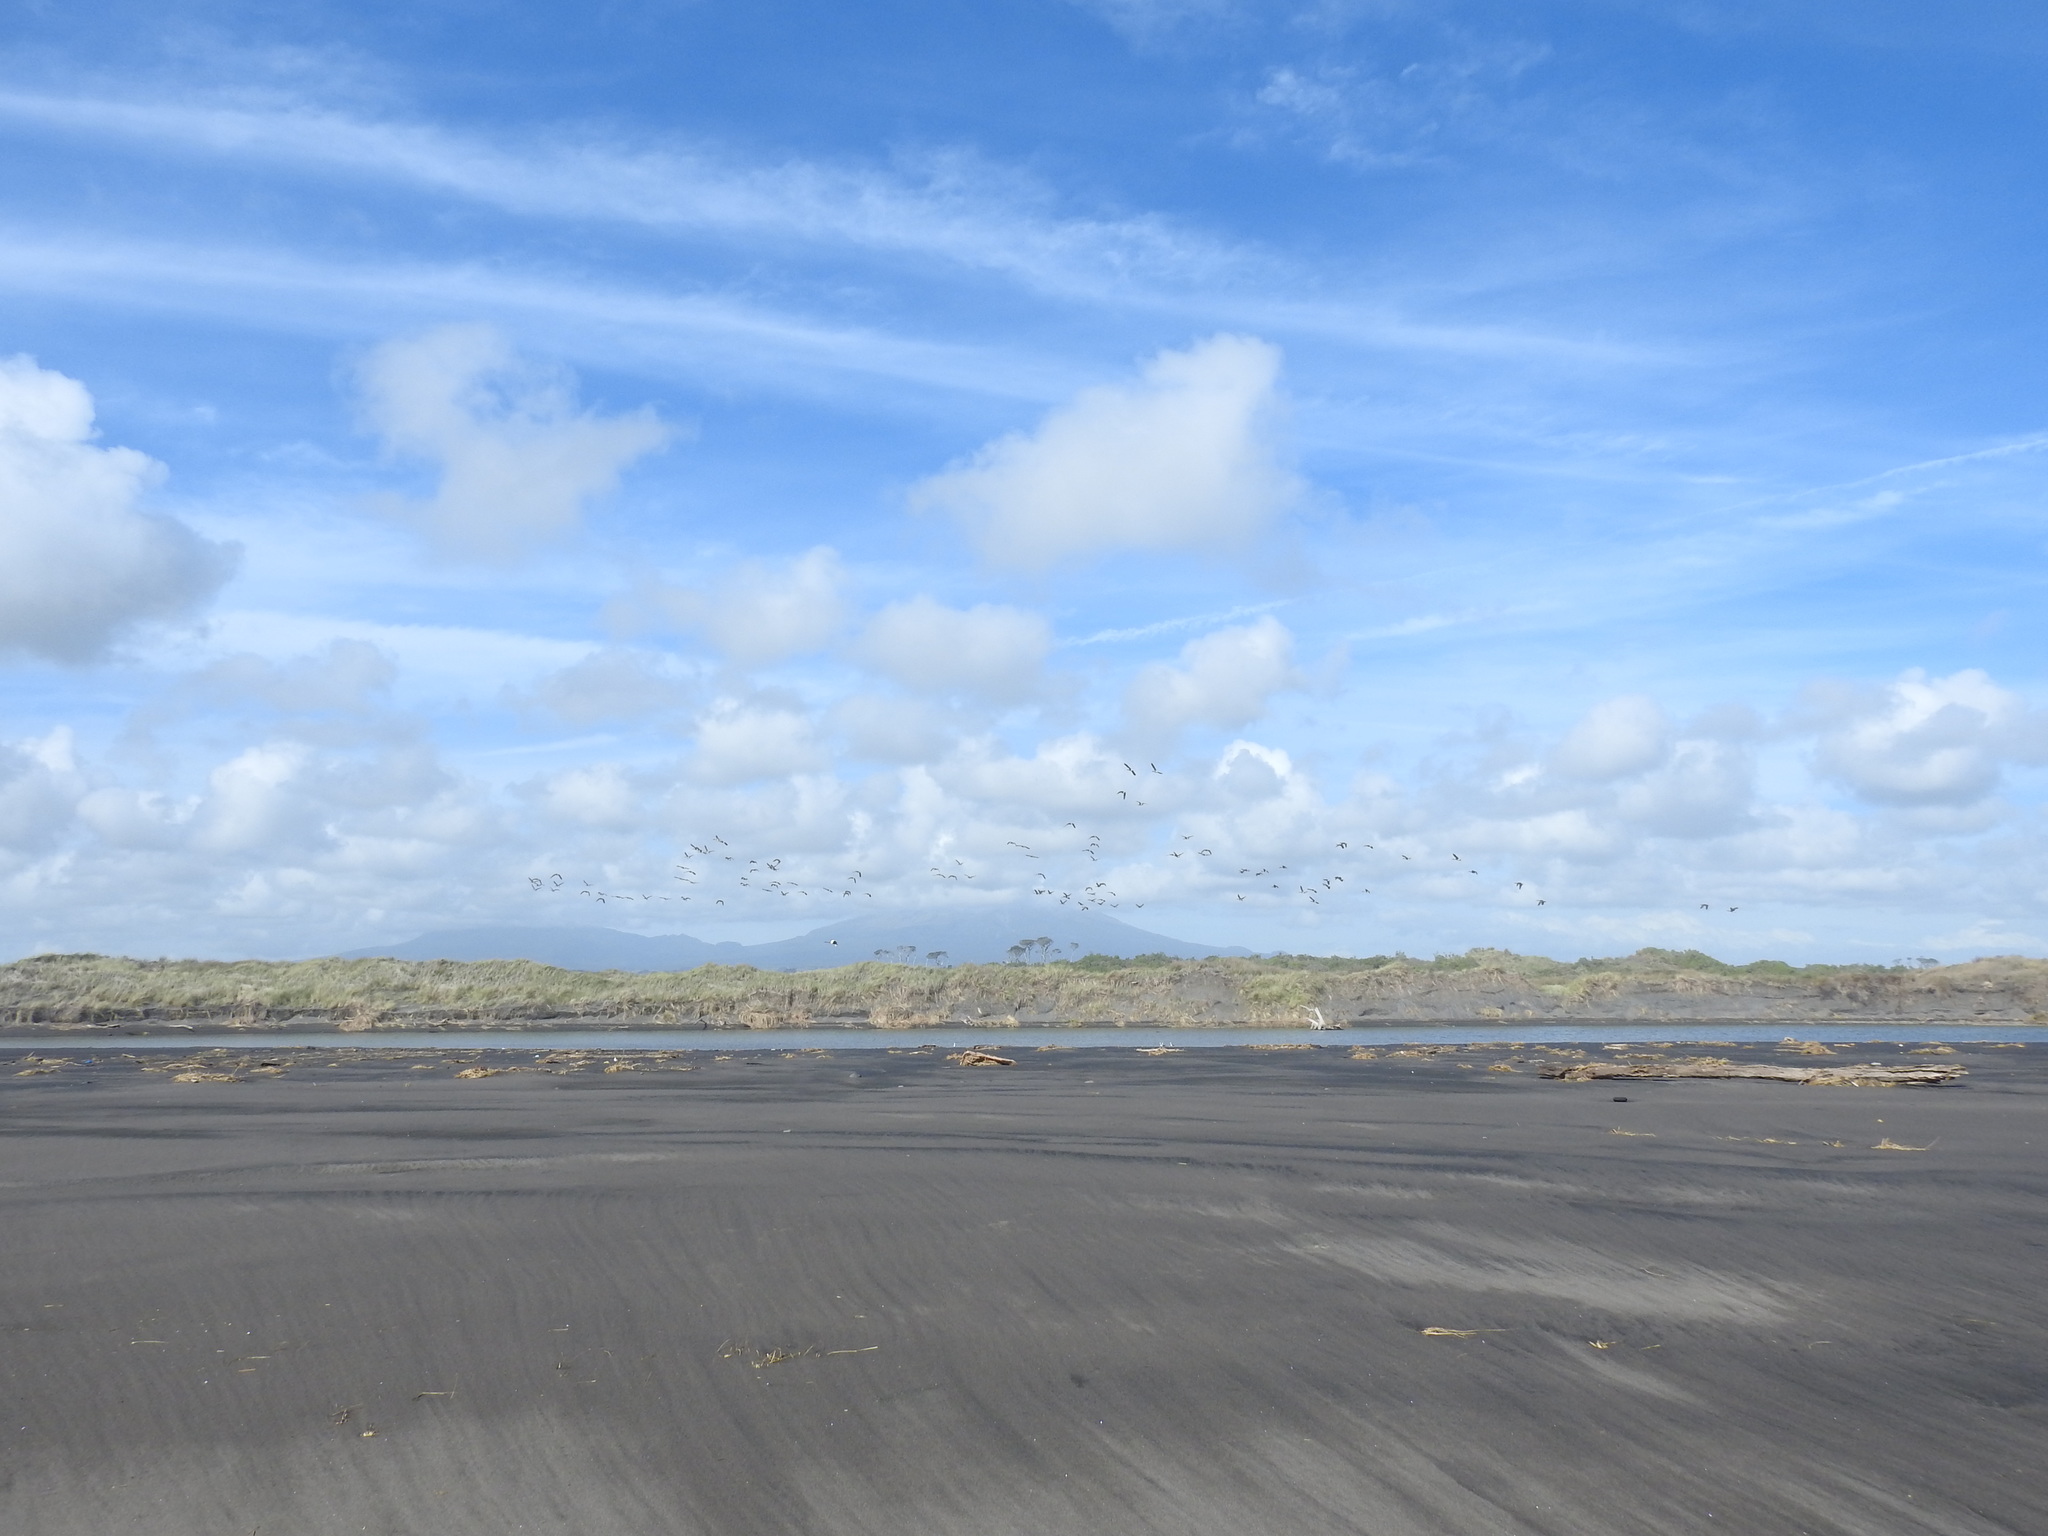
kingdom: Animalia
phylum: Chordata
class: Aves
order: Anseriformes
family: Anatidae
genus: Branta
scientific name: Branta canadensis
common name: Canada goose
